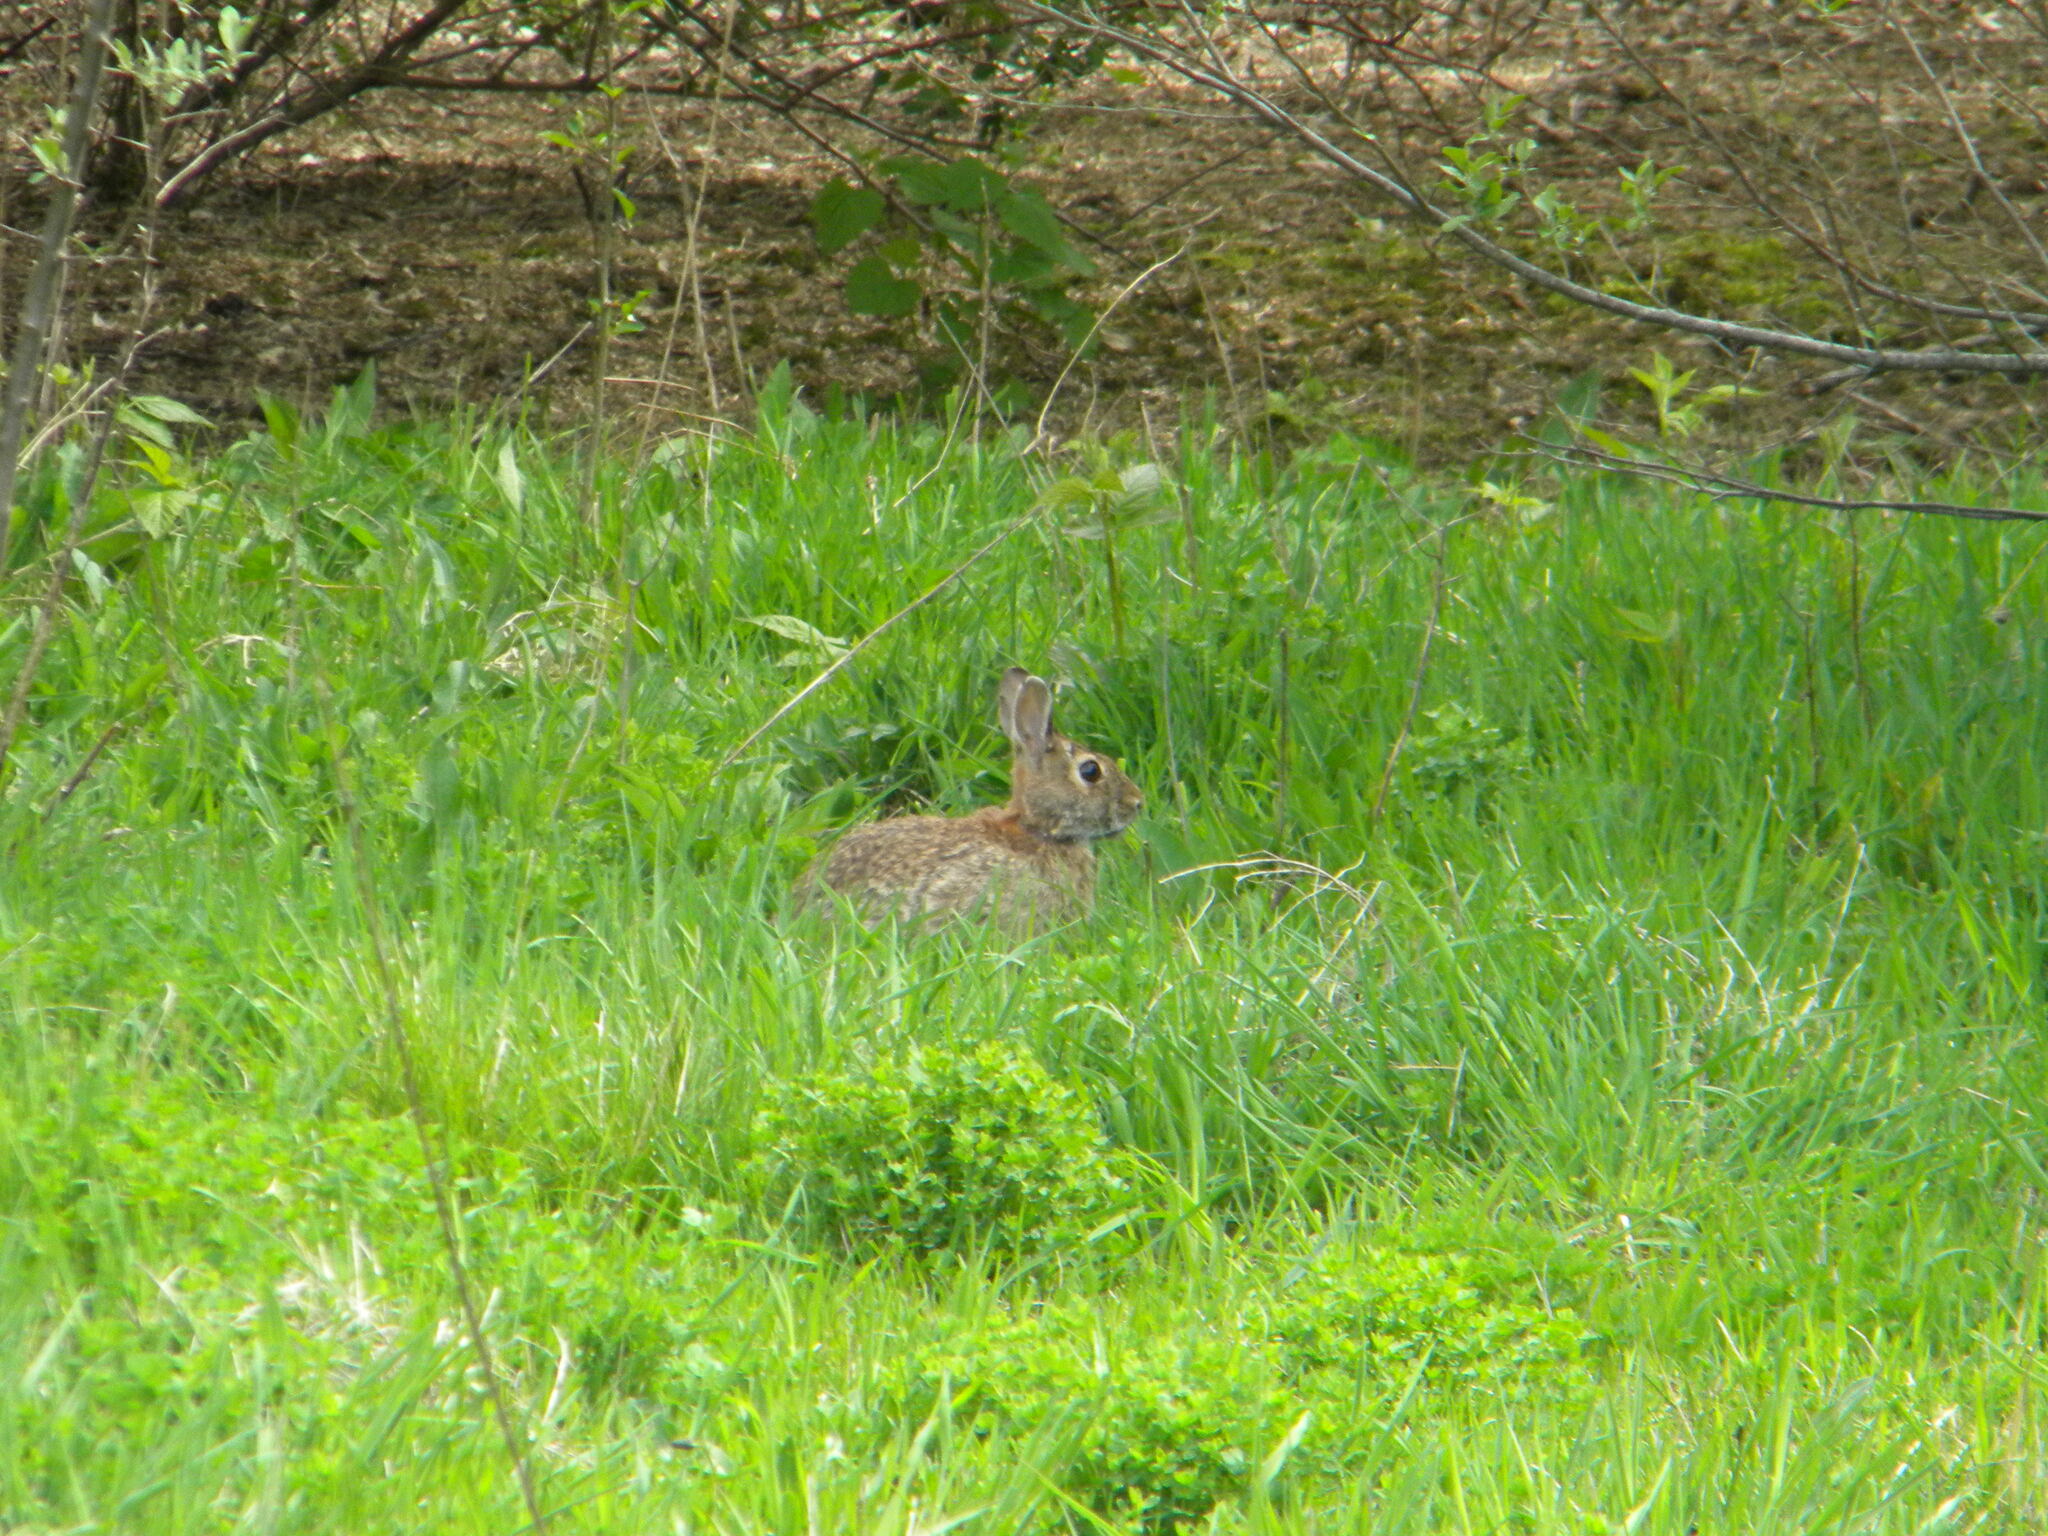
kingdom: Animalia
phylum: Chordata
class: Mammalia
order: Lagomorpha
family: Leporidae
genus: Sylvilagus
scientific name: Sylvilagus floridanus
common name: Eastern cottontail
